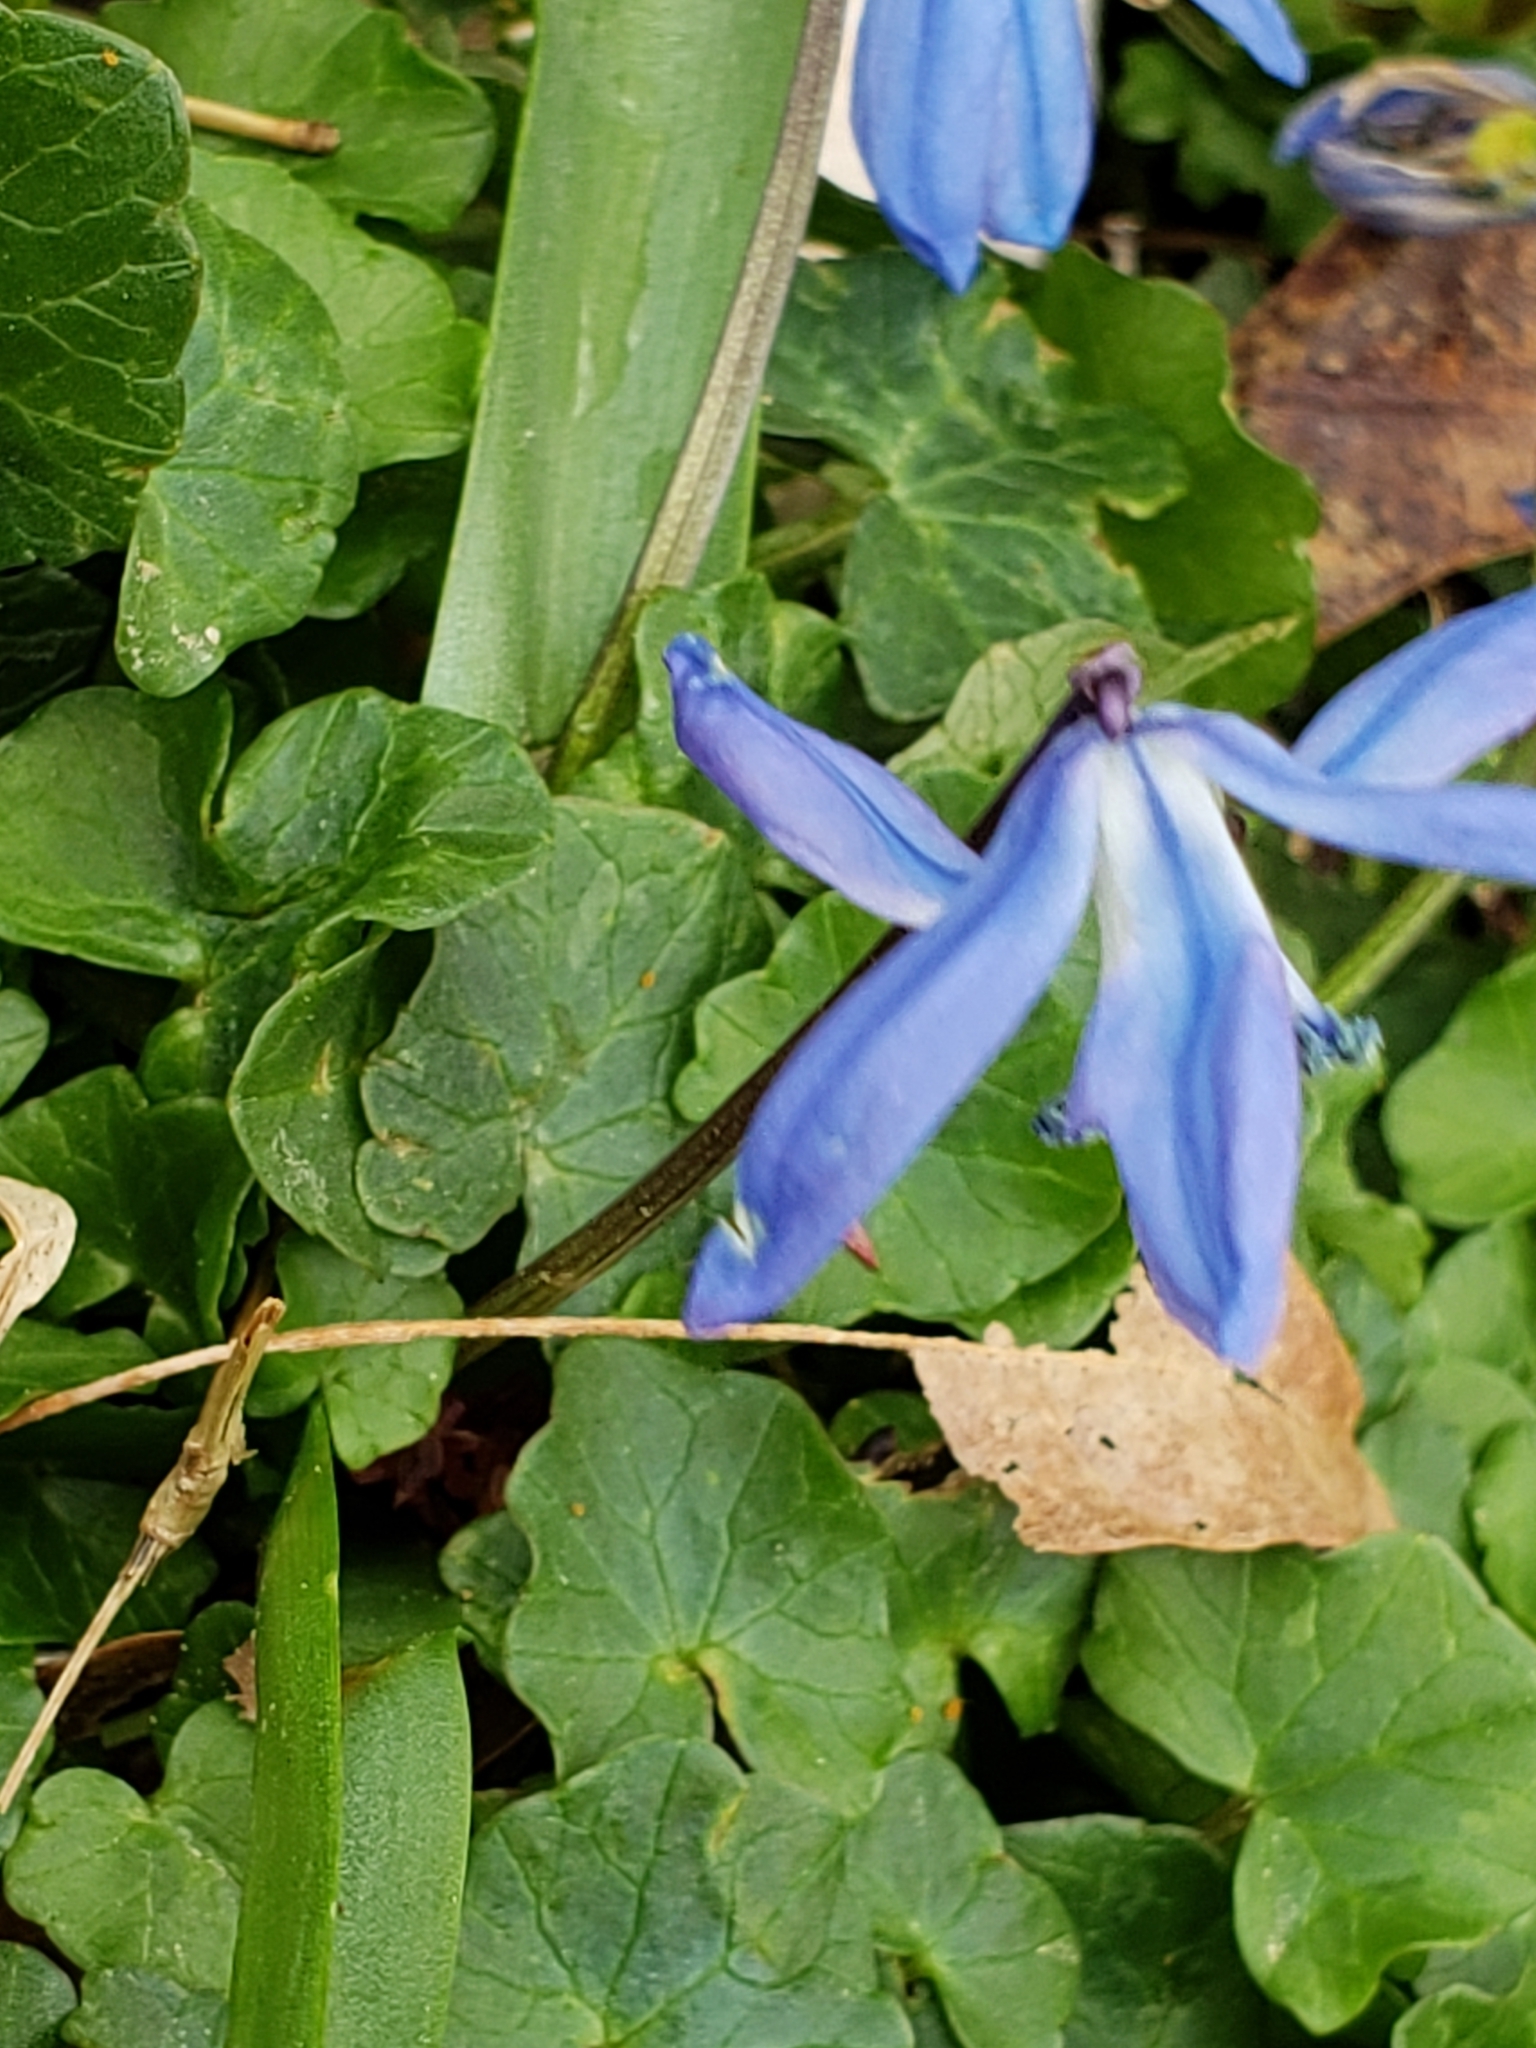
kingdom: Plantae
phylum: Tracheophyta
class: Liliopsida
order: Asparagales
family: Asparagaceae
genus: Scilla
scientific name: Scilla siberica
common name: Siberian squill
